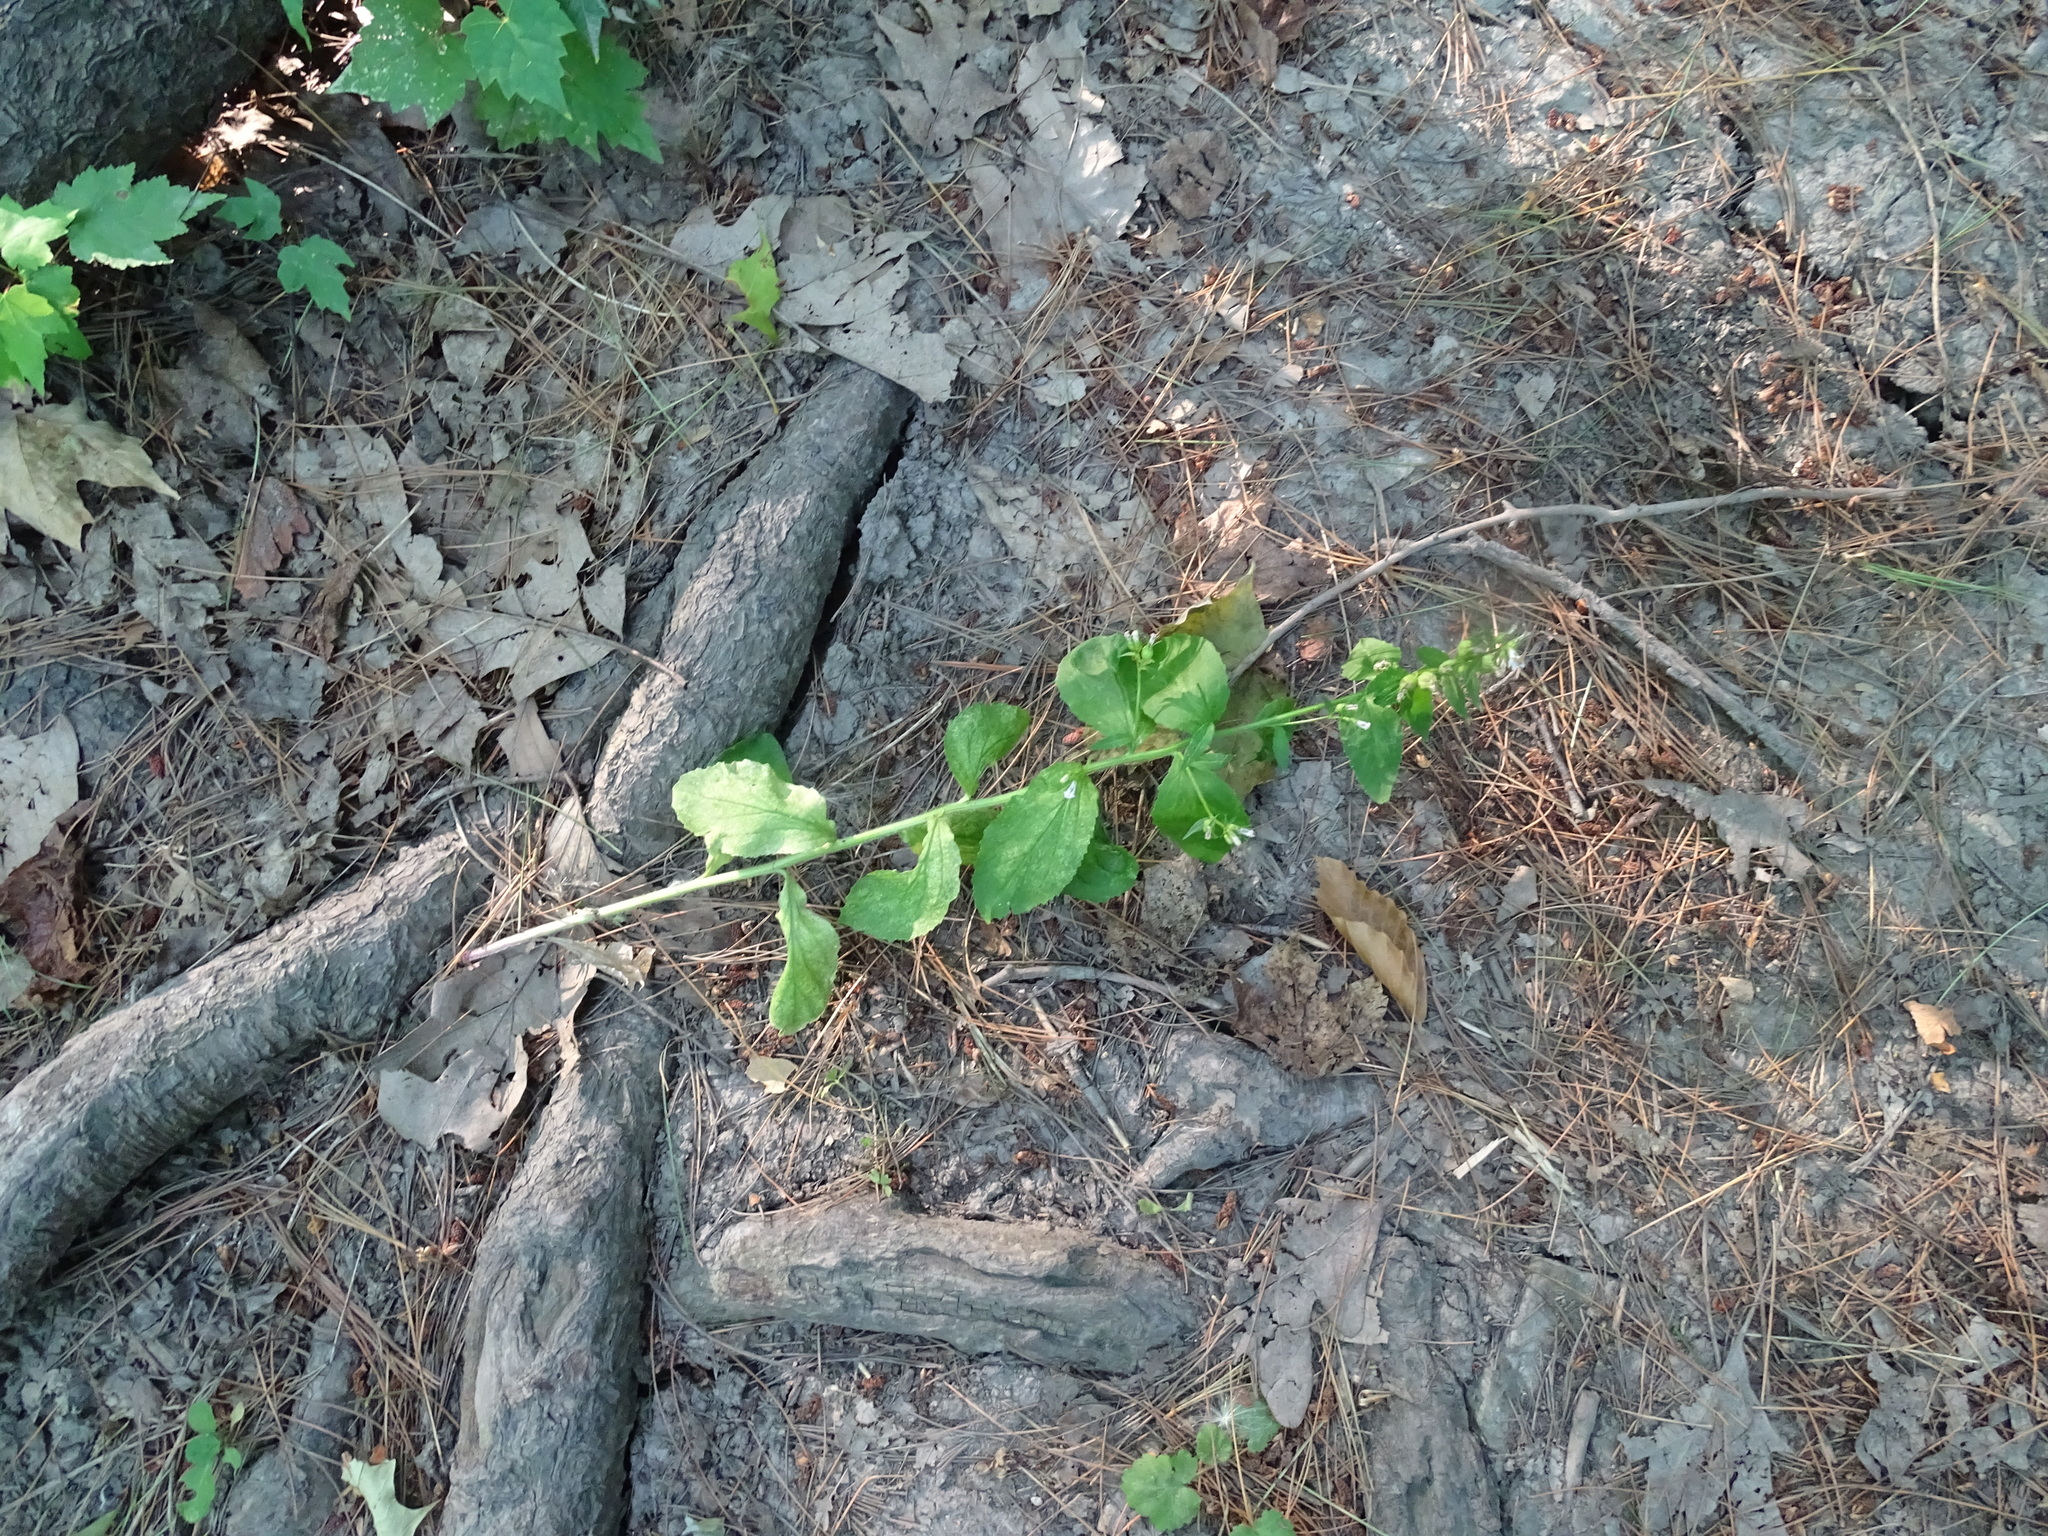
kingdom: Plantae
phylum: Tracheophyta
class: Magnoliopsida
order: Asterales
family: Campanulaceae
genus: Lobelia
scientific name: Lobelia inflata
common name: Indian tobacco
